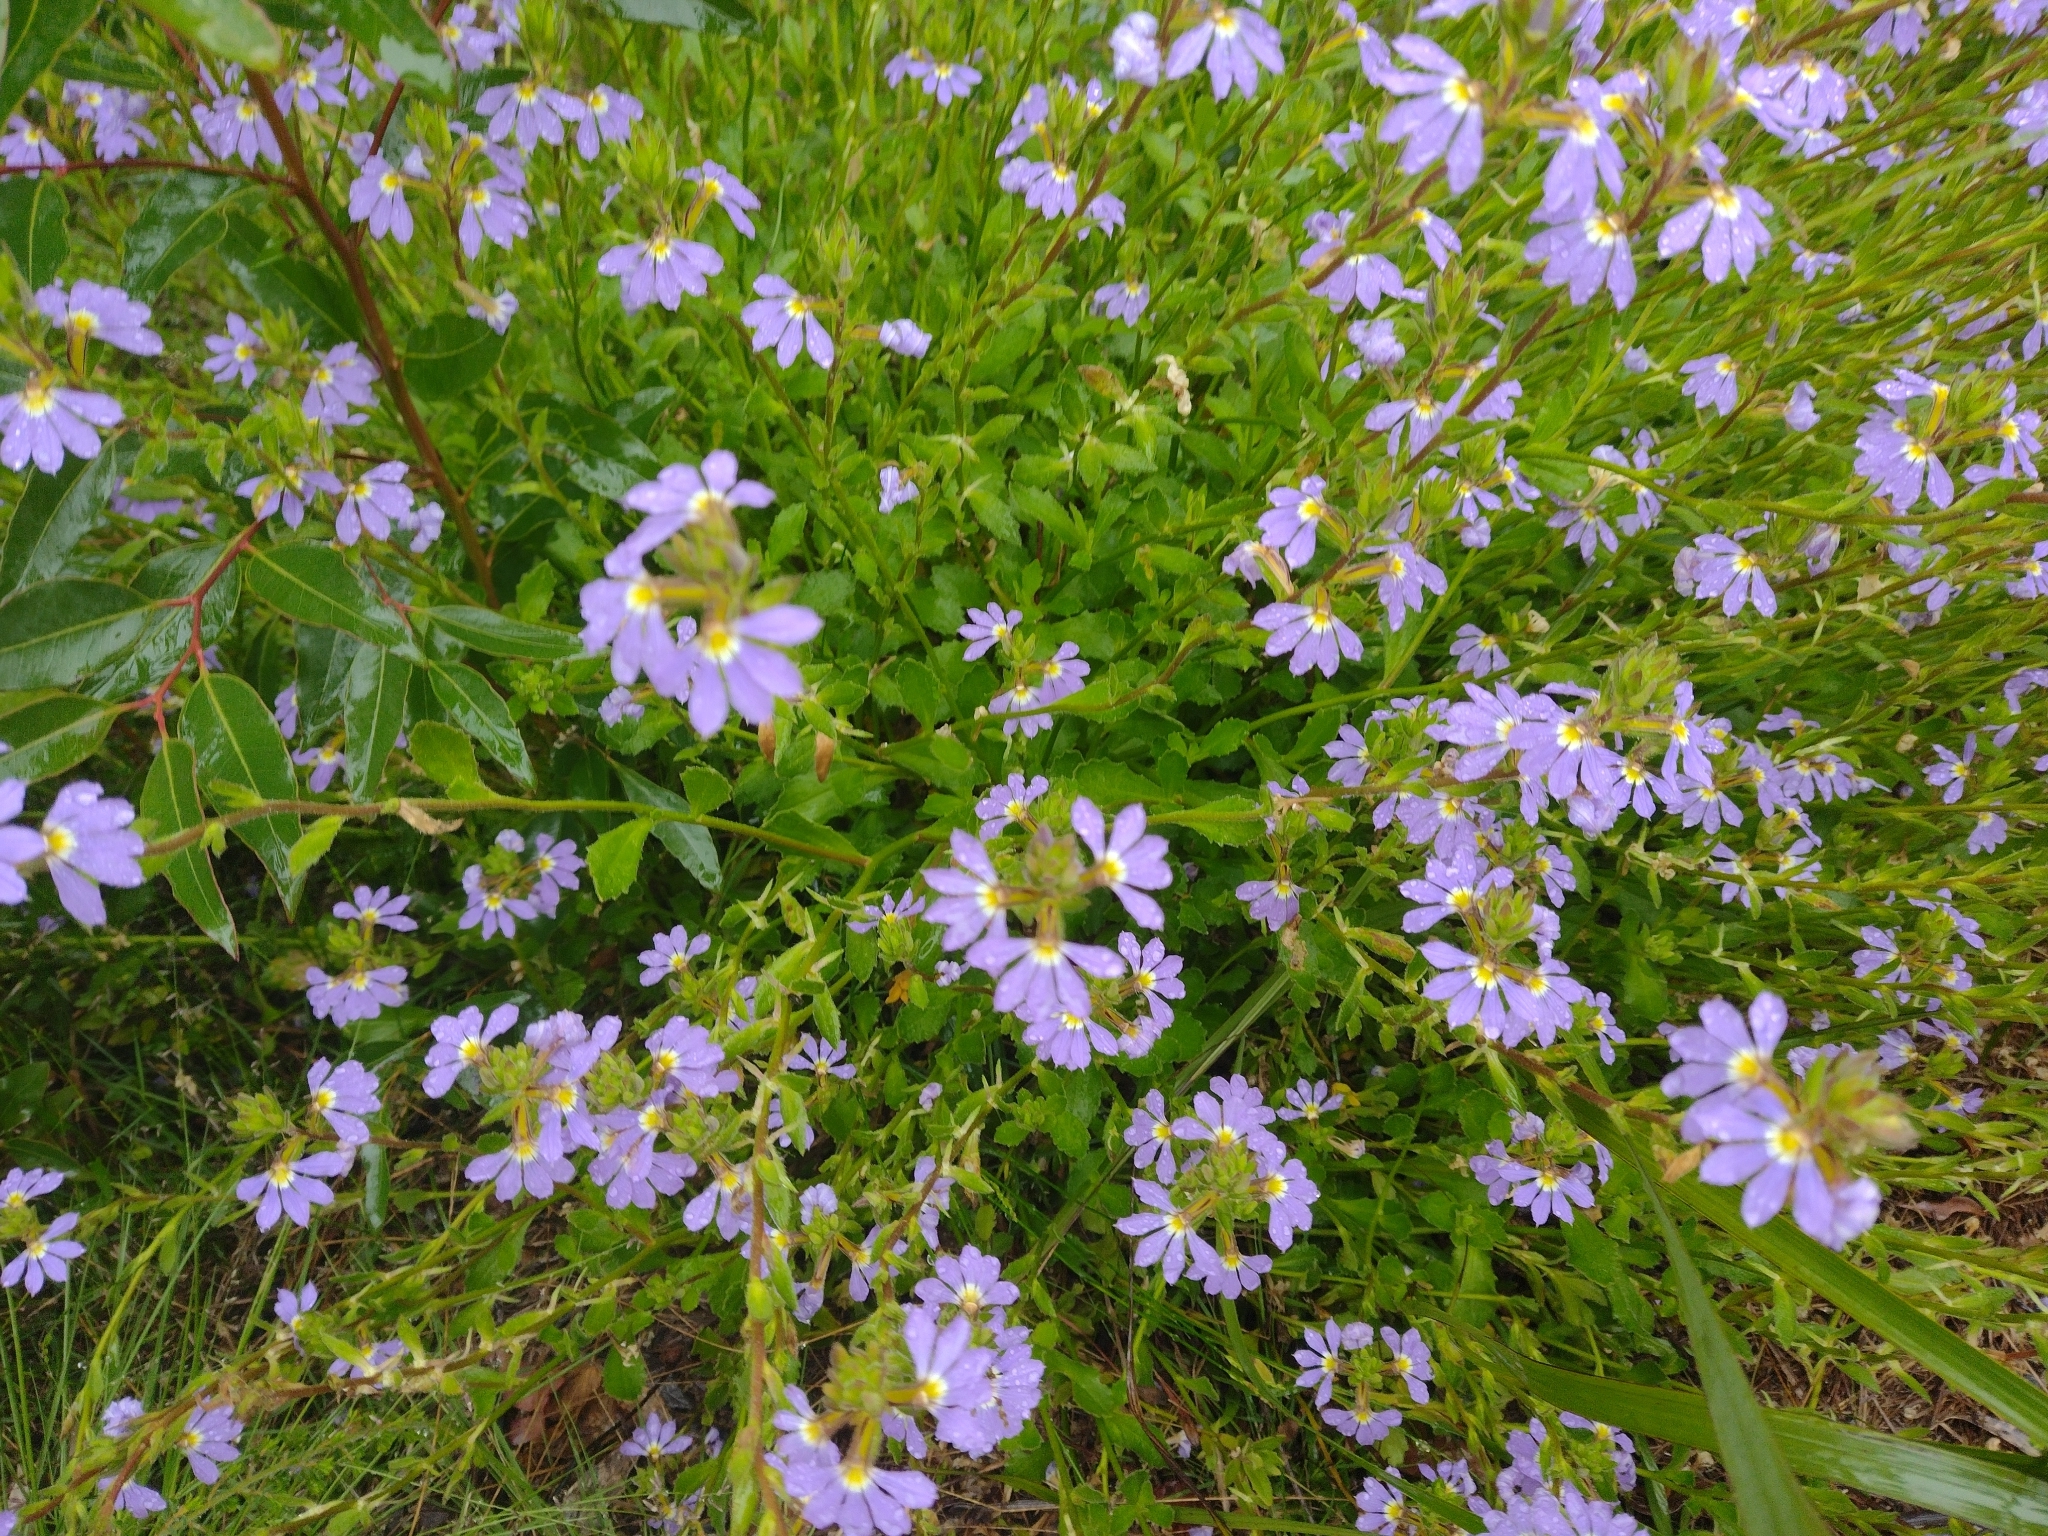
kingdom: Plantae
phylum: Tracheophyta
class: Magnoliopsida
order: Asterales
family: Goodeniaceae
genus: Scaevola
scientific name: Scaevola aemula
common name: Common fanflower
